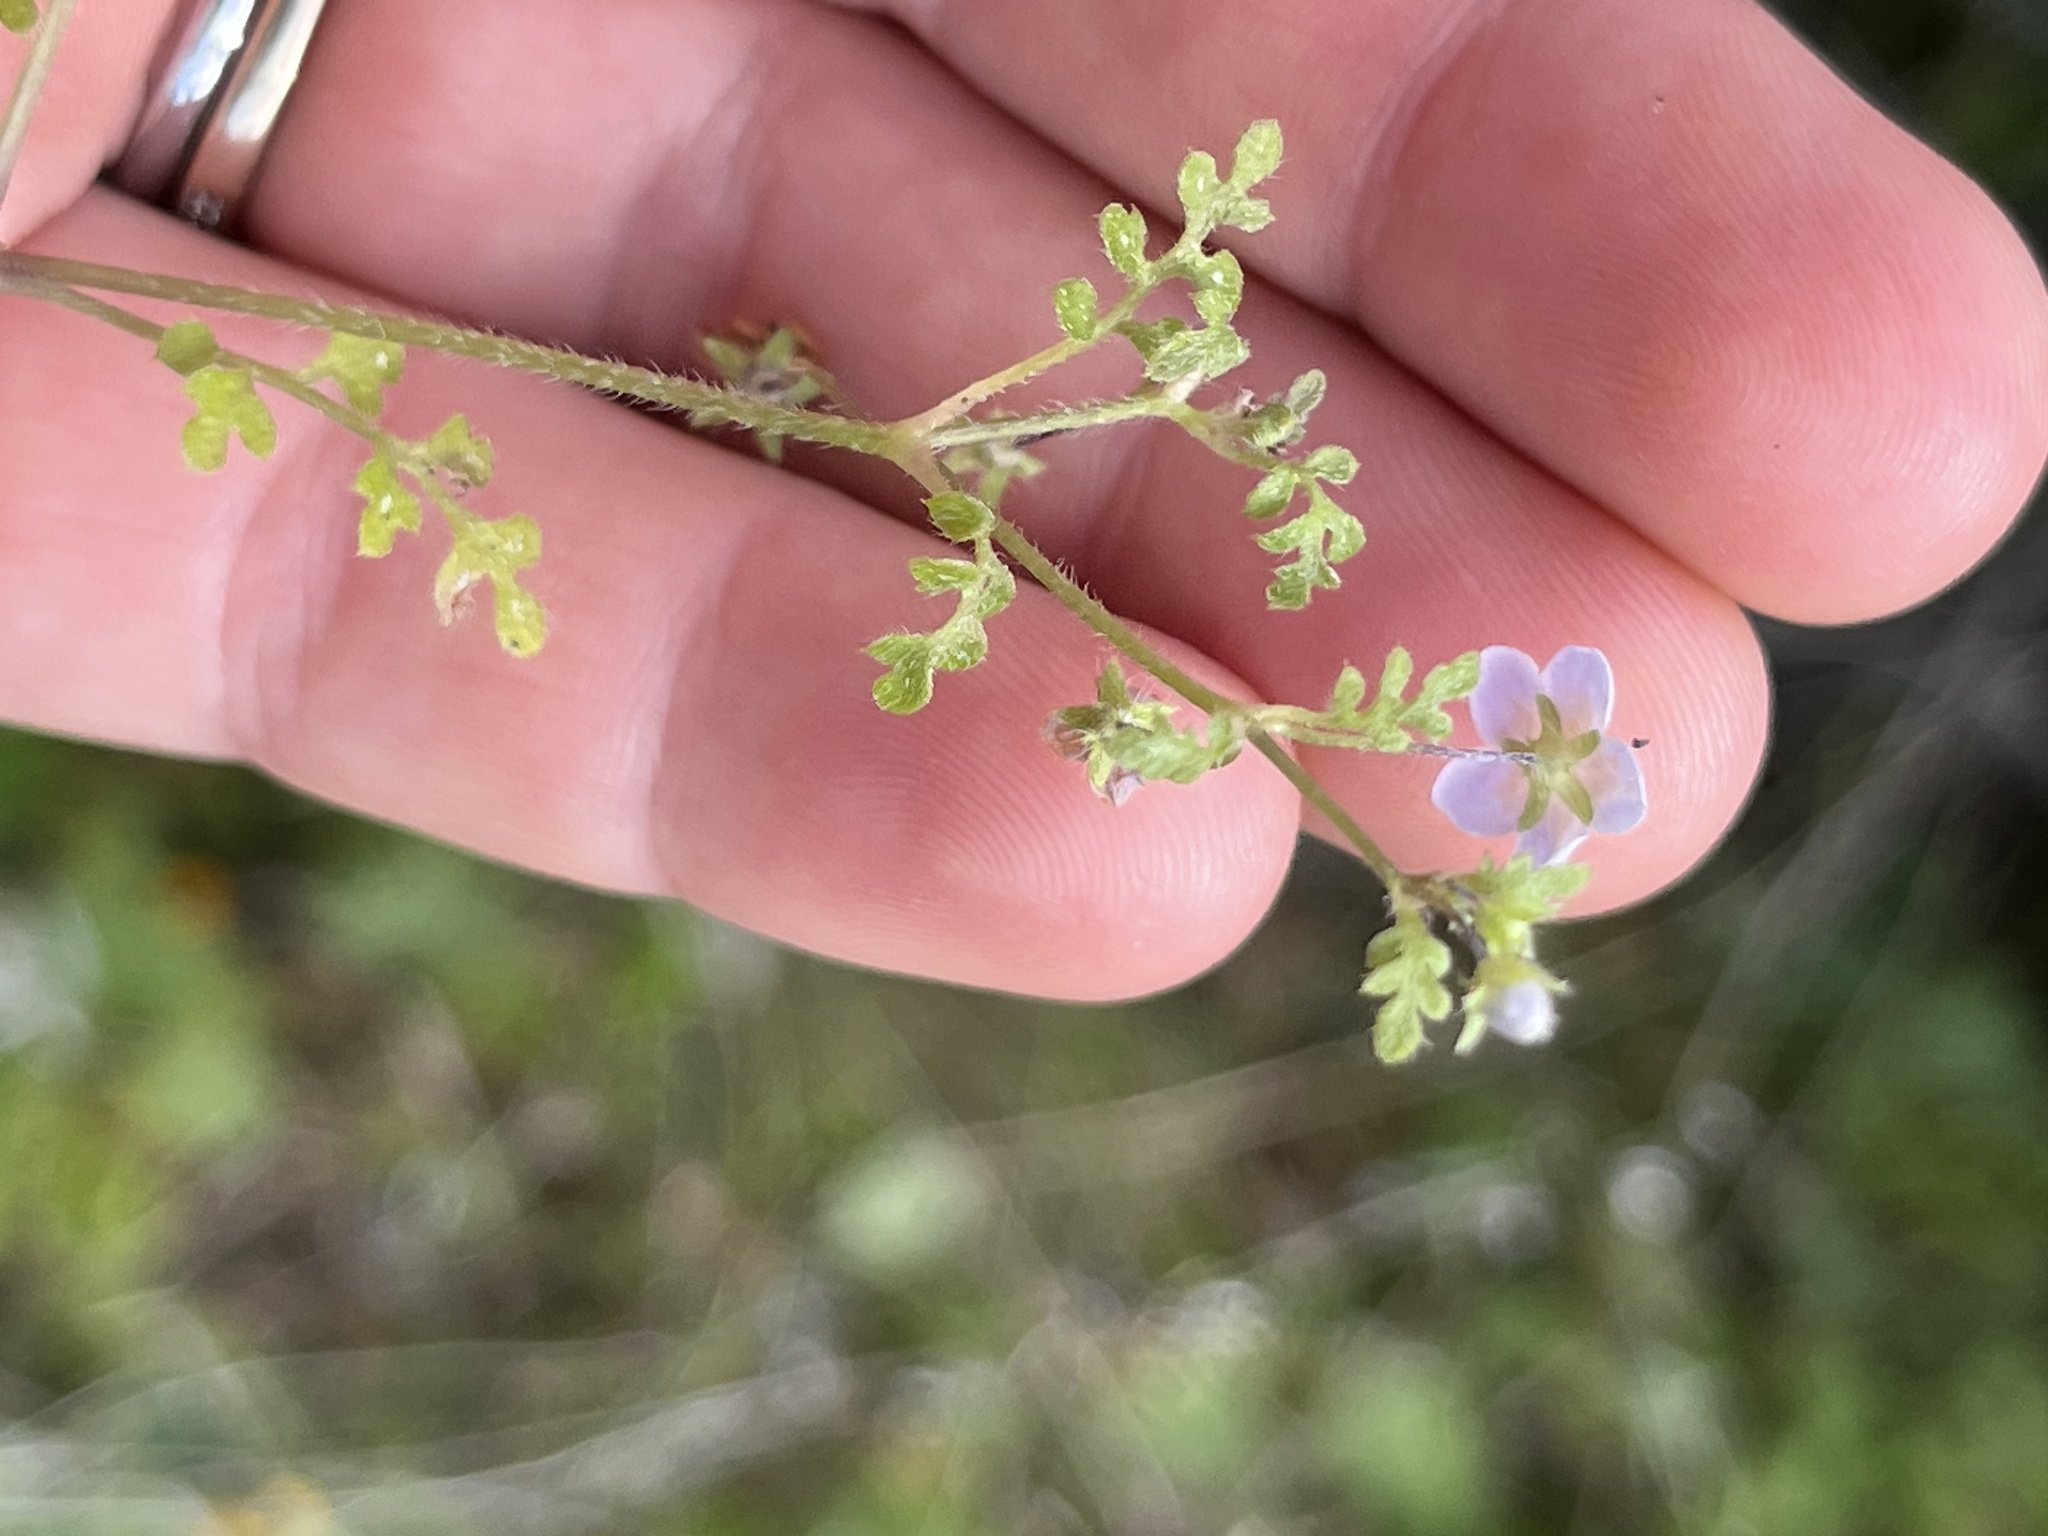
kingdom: Plantae
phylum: Tracheophyta
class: Magnoliopsida
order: Boraginales
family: Hydrophyllaceae
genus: Nemophila
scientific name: Nemophila pulchella
